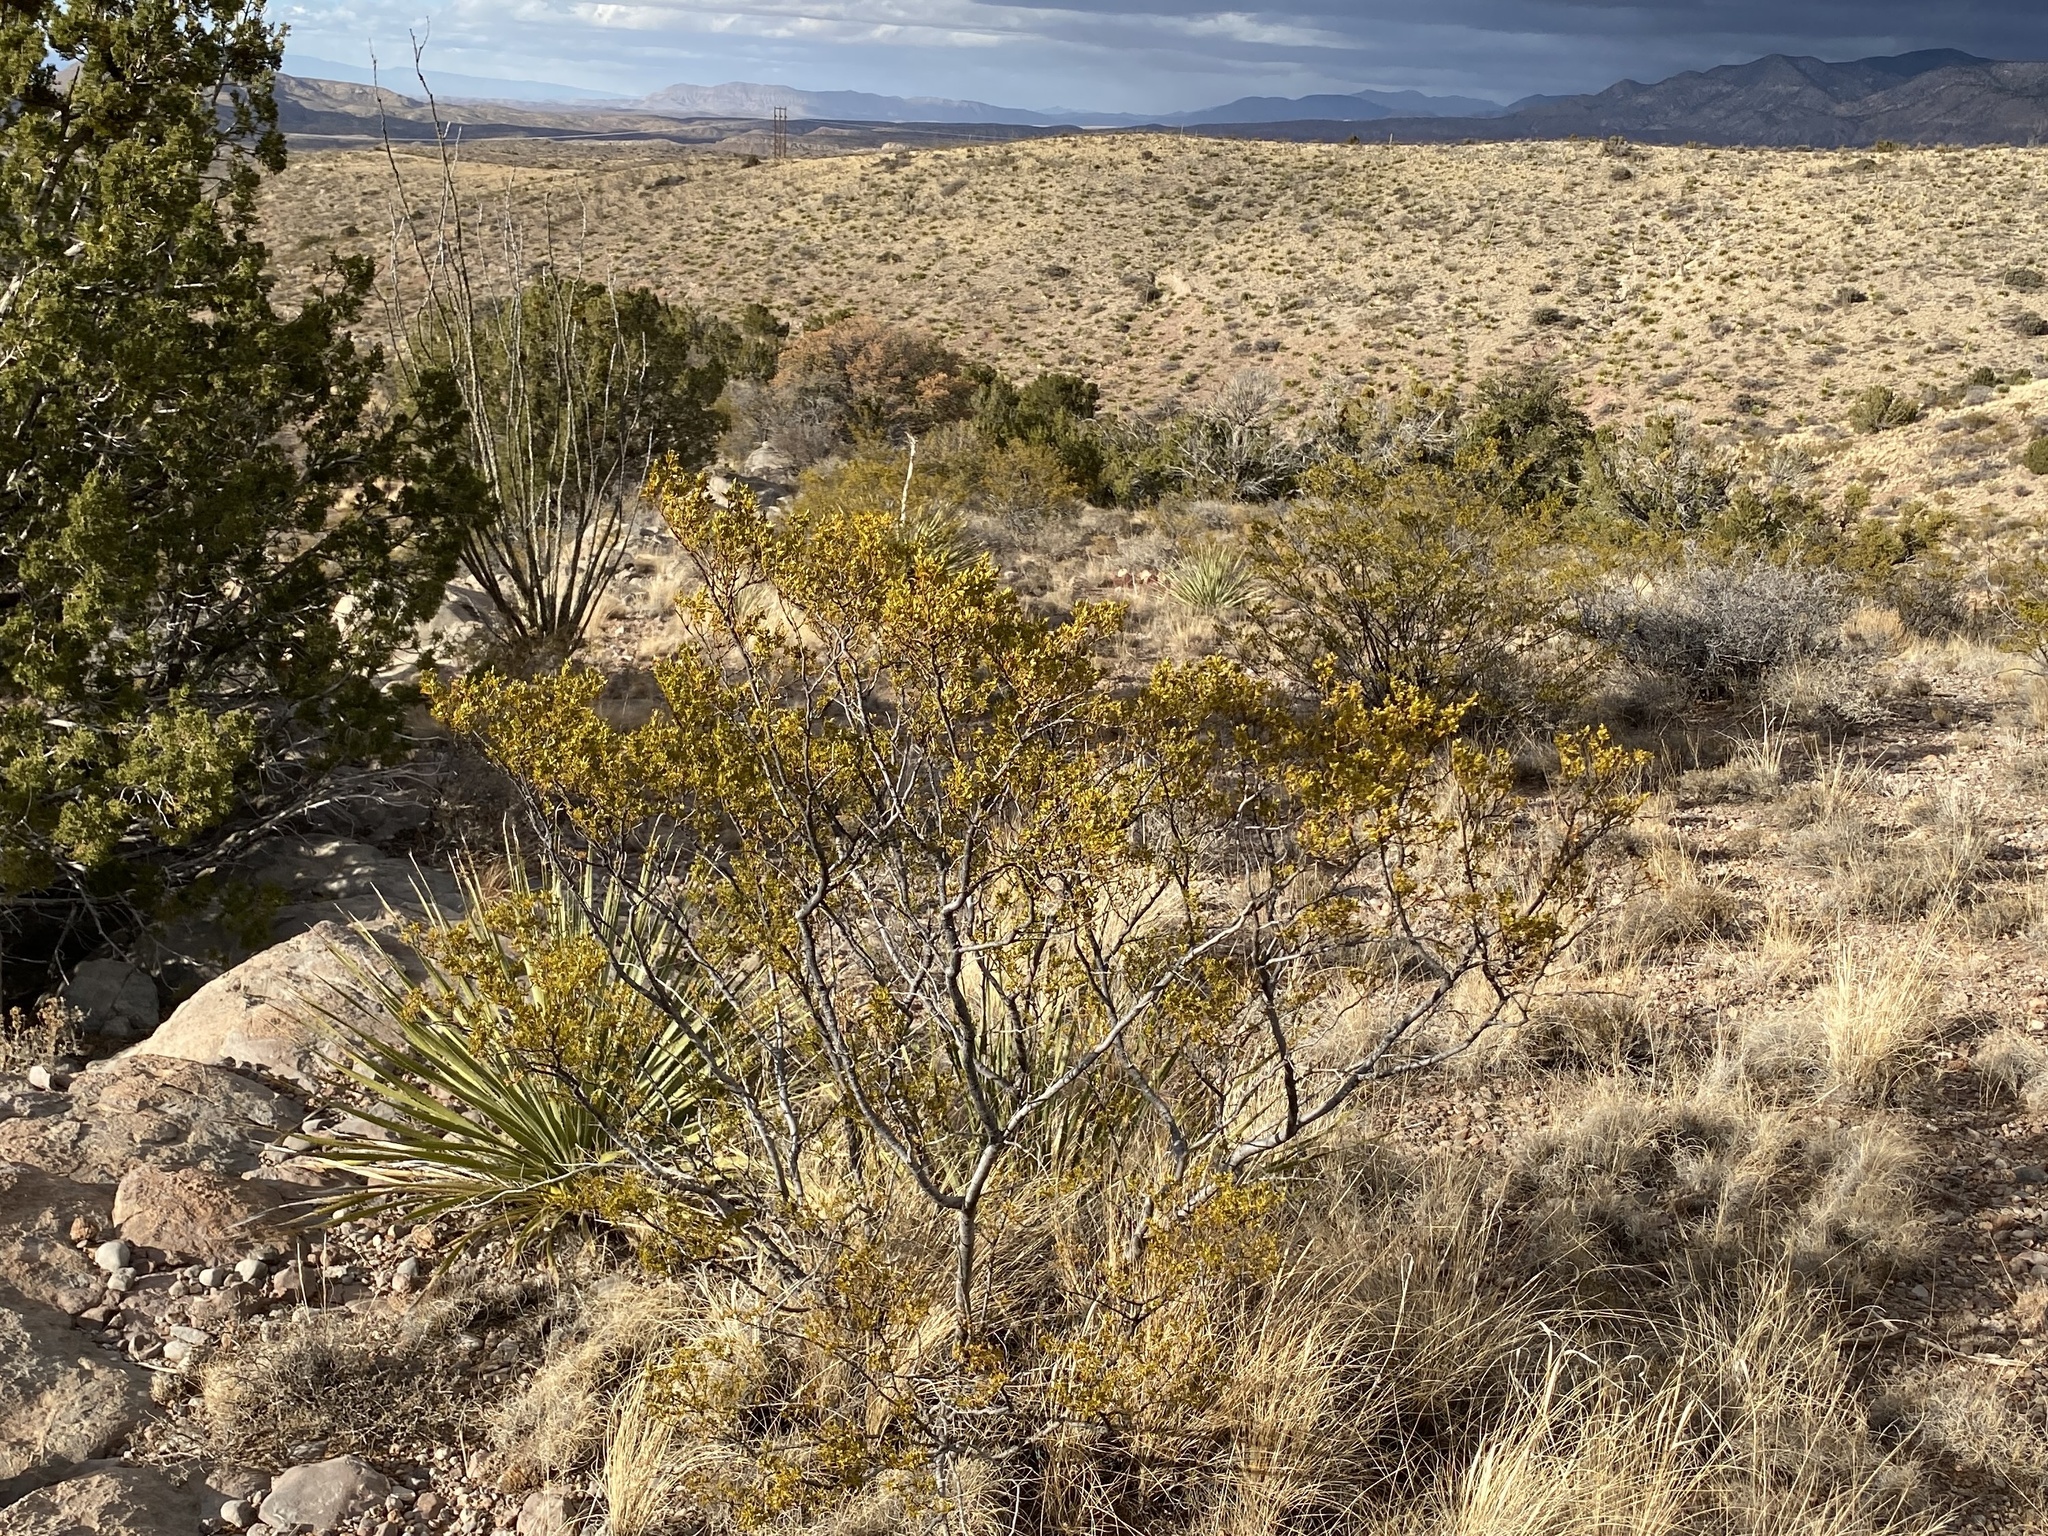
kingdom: Plantae
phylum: Tracheophyta
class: Magnoliopsida
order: Zygophyllales
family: Zygophyllaceae
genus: Larrea
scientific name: Larrea tridentata
